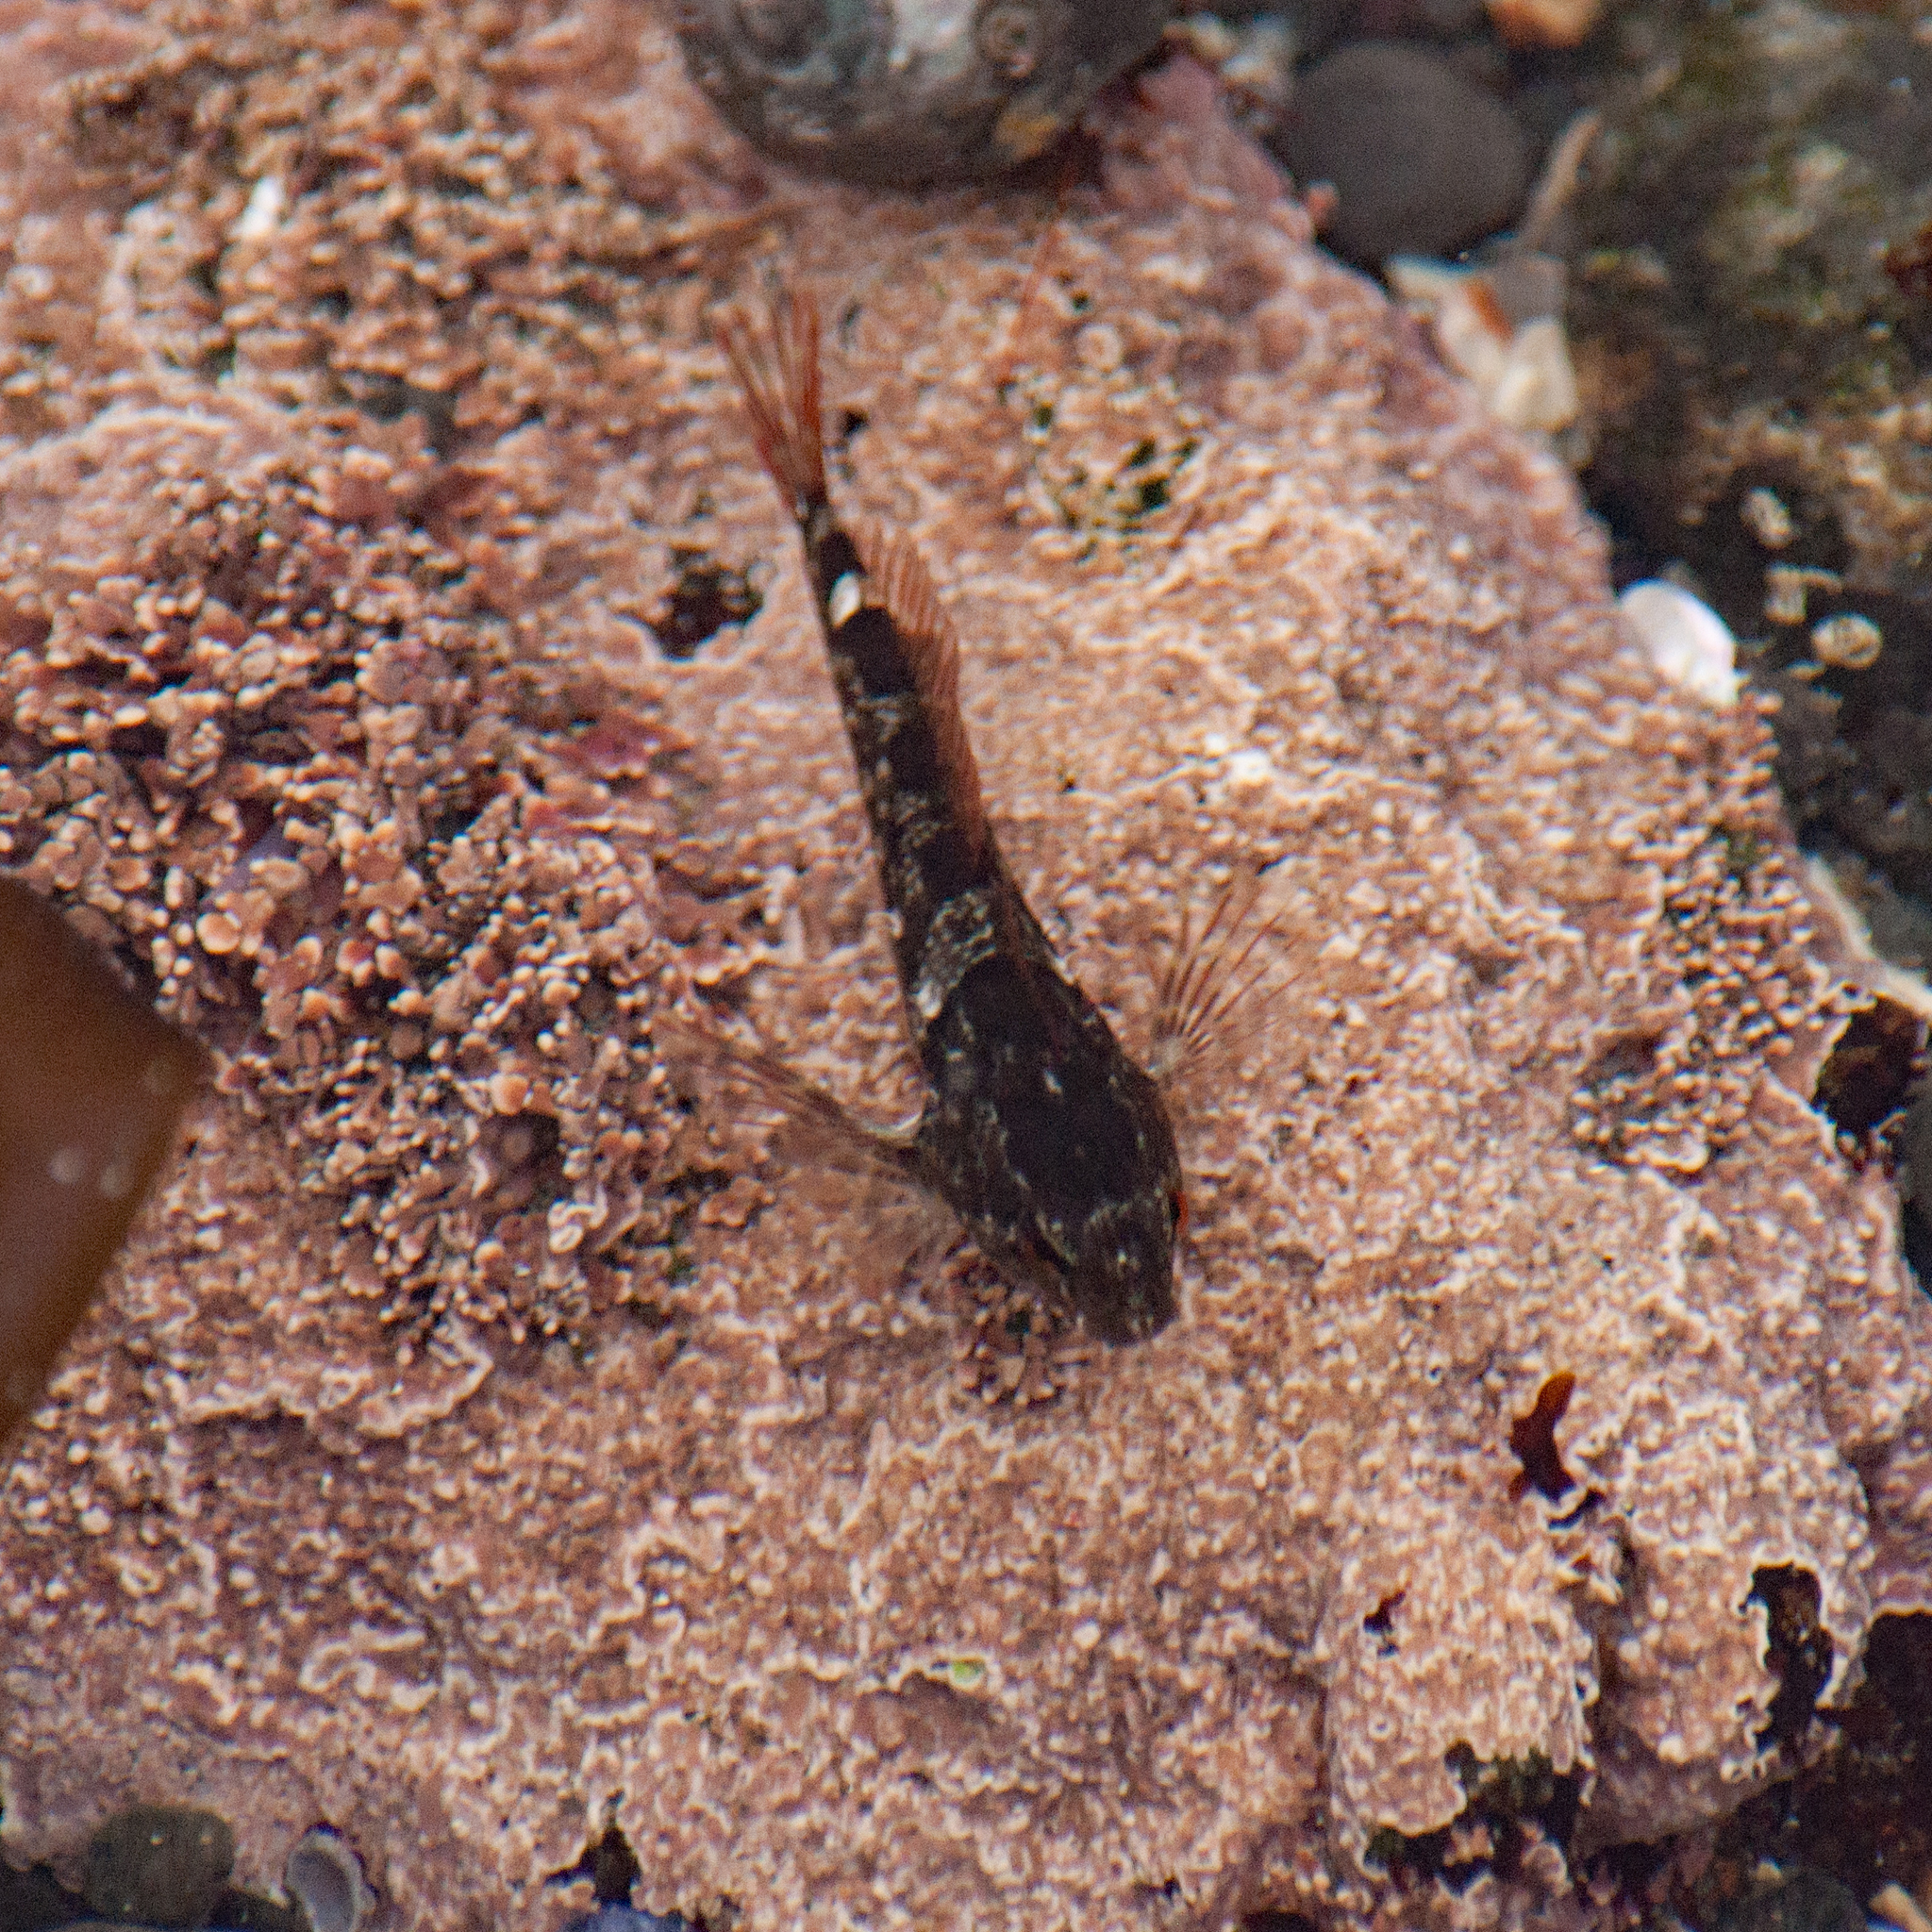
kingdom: Animalia
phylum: Chordata
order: Scorpaeniformes
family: Cottidae
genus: Oligocottus
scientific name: Oligocottus maculosus
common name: Tidepool sculpin
